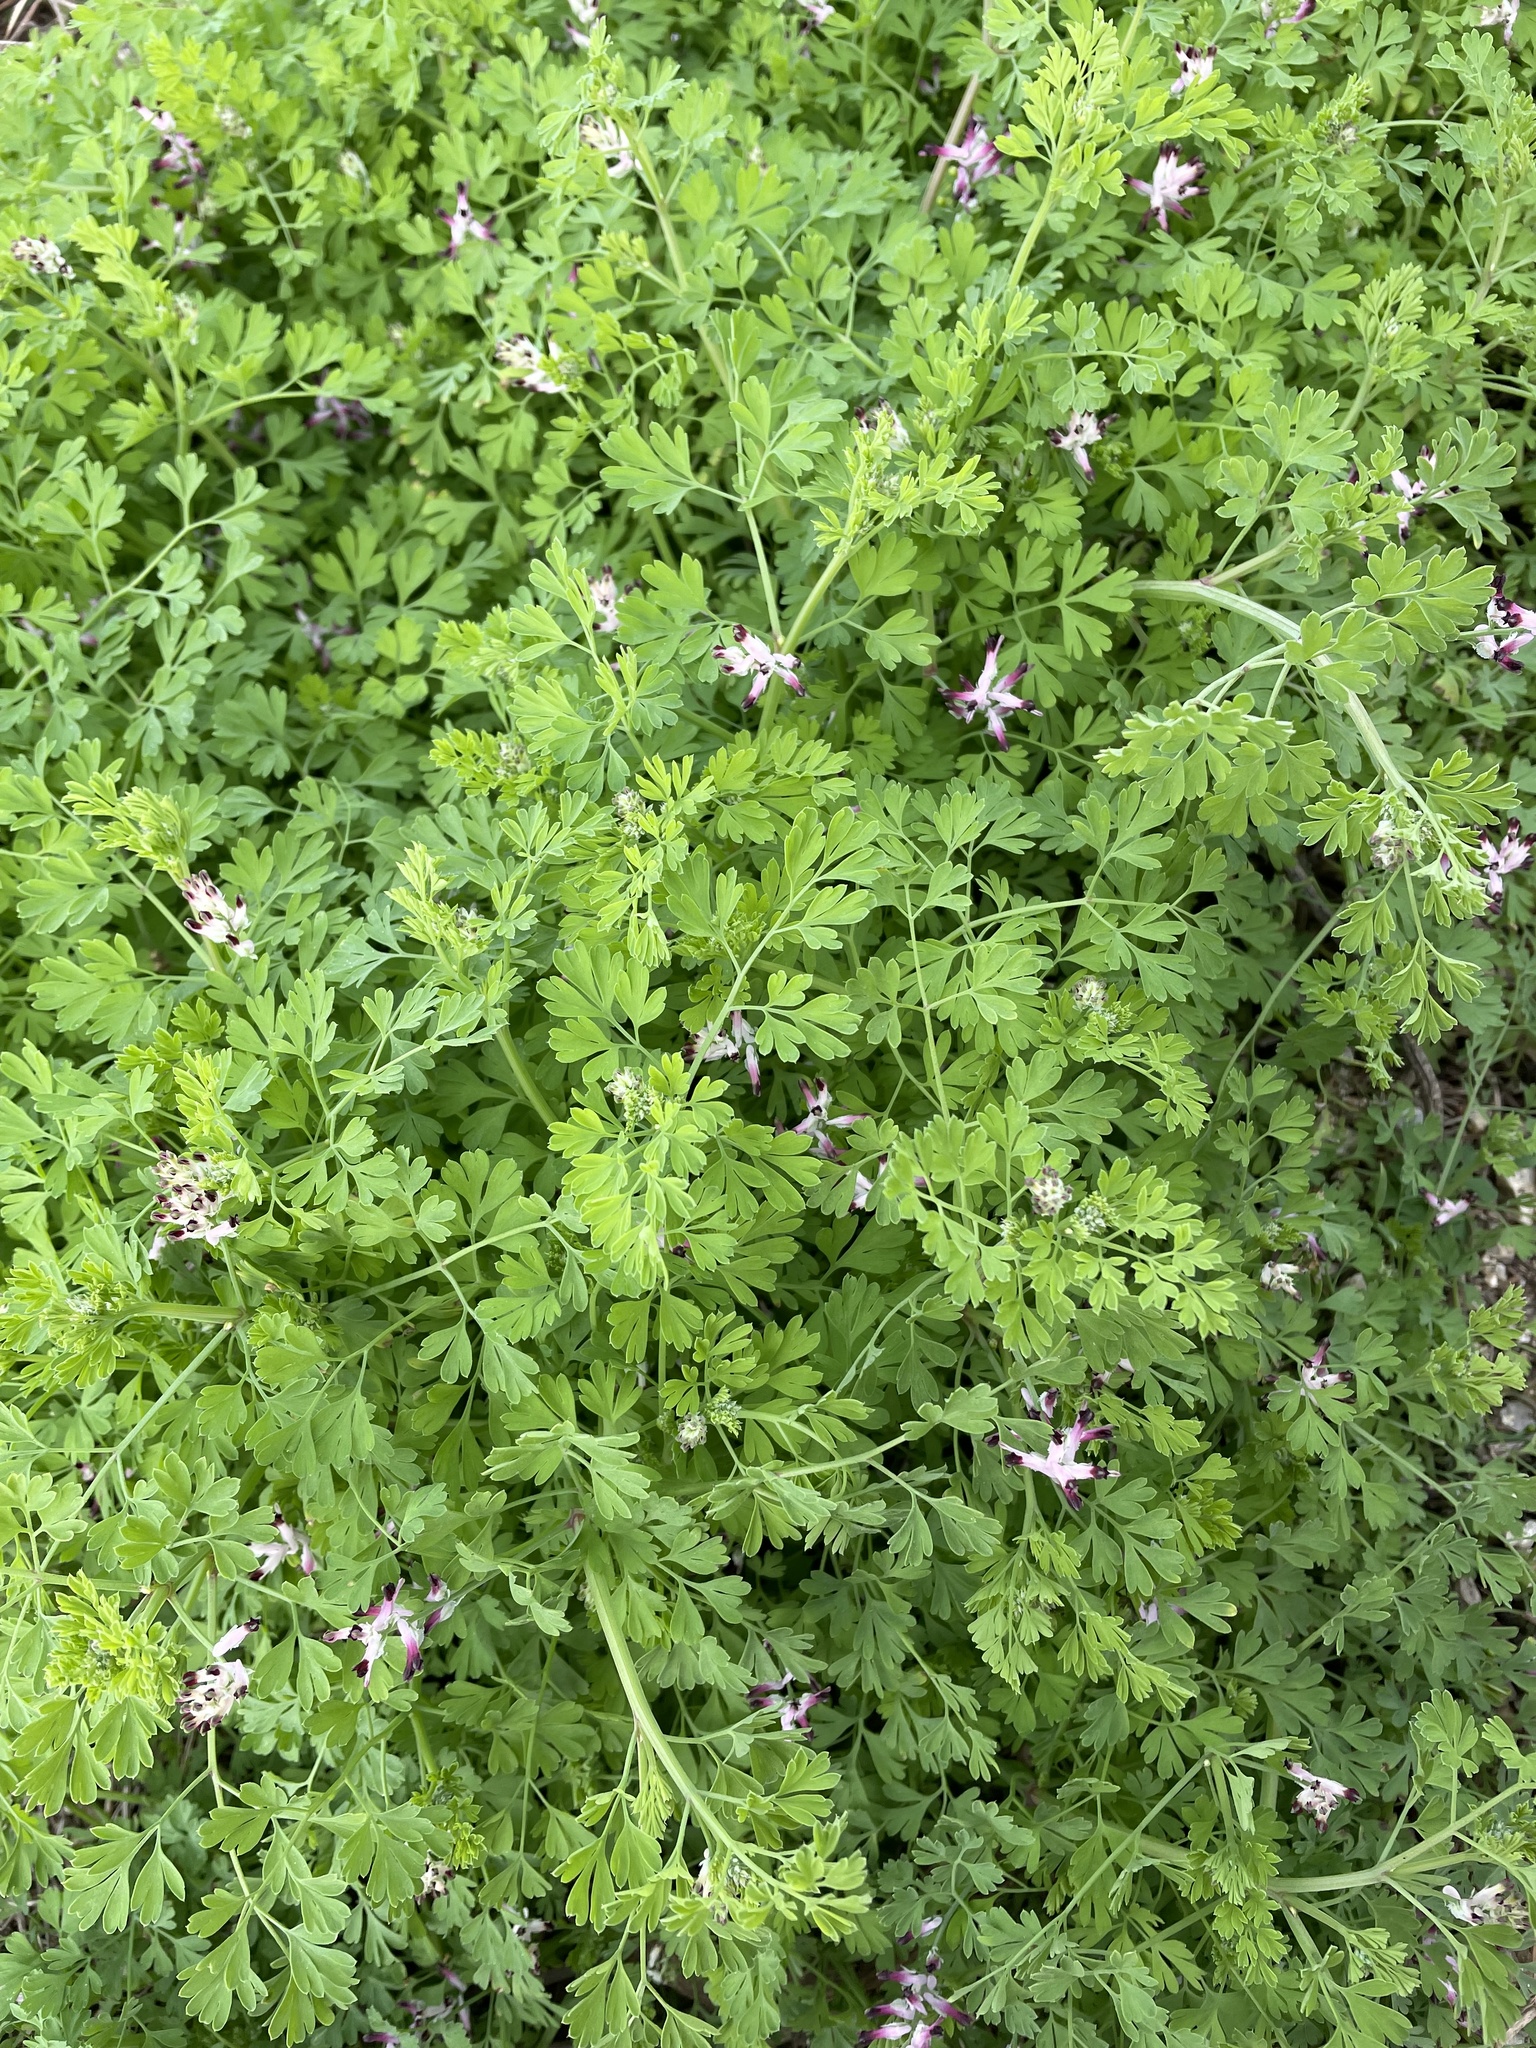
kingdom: Plantae
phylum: Tracheophyta
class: Magnoliopsida
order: Ranunculales
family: Papaveraceae
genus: Fumaria
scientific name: Fumaria muralis
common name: Common ramping-fumitory
